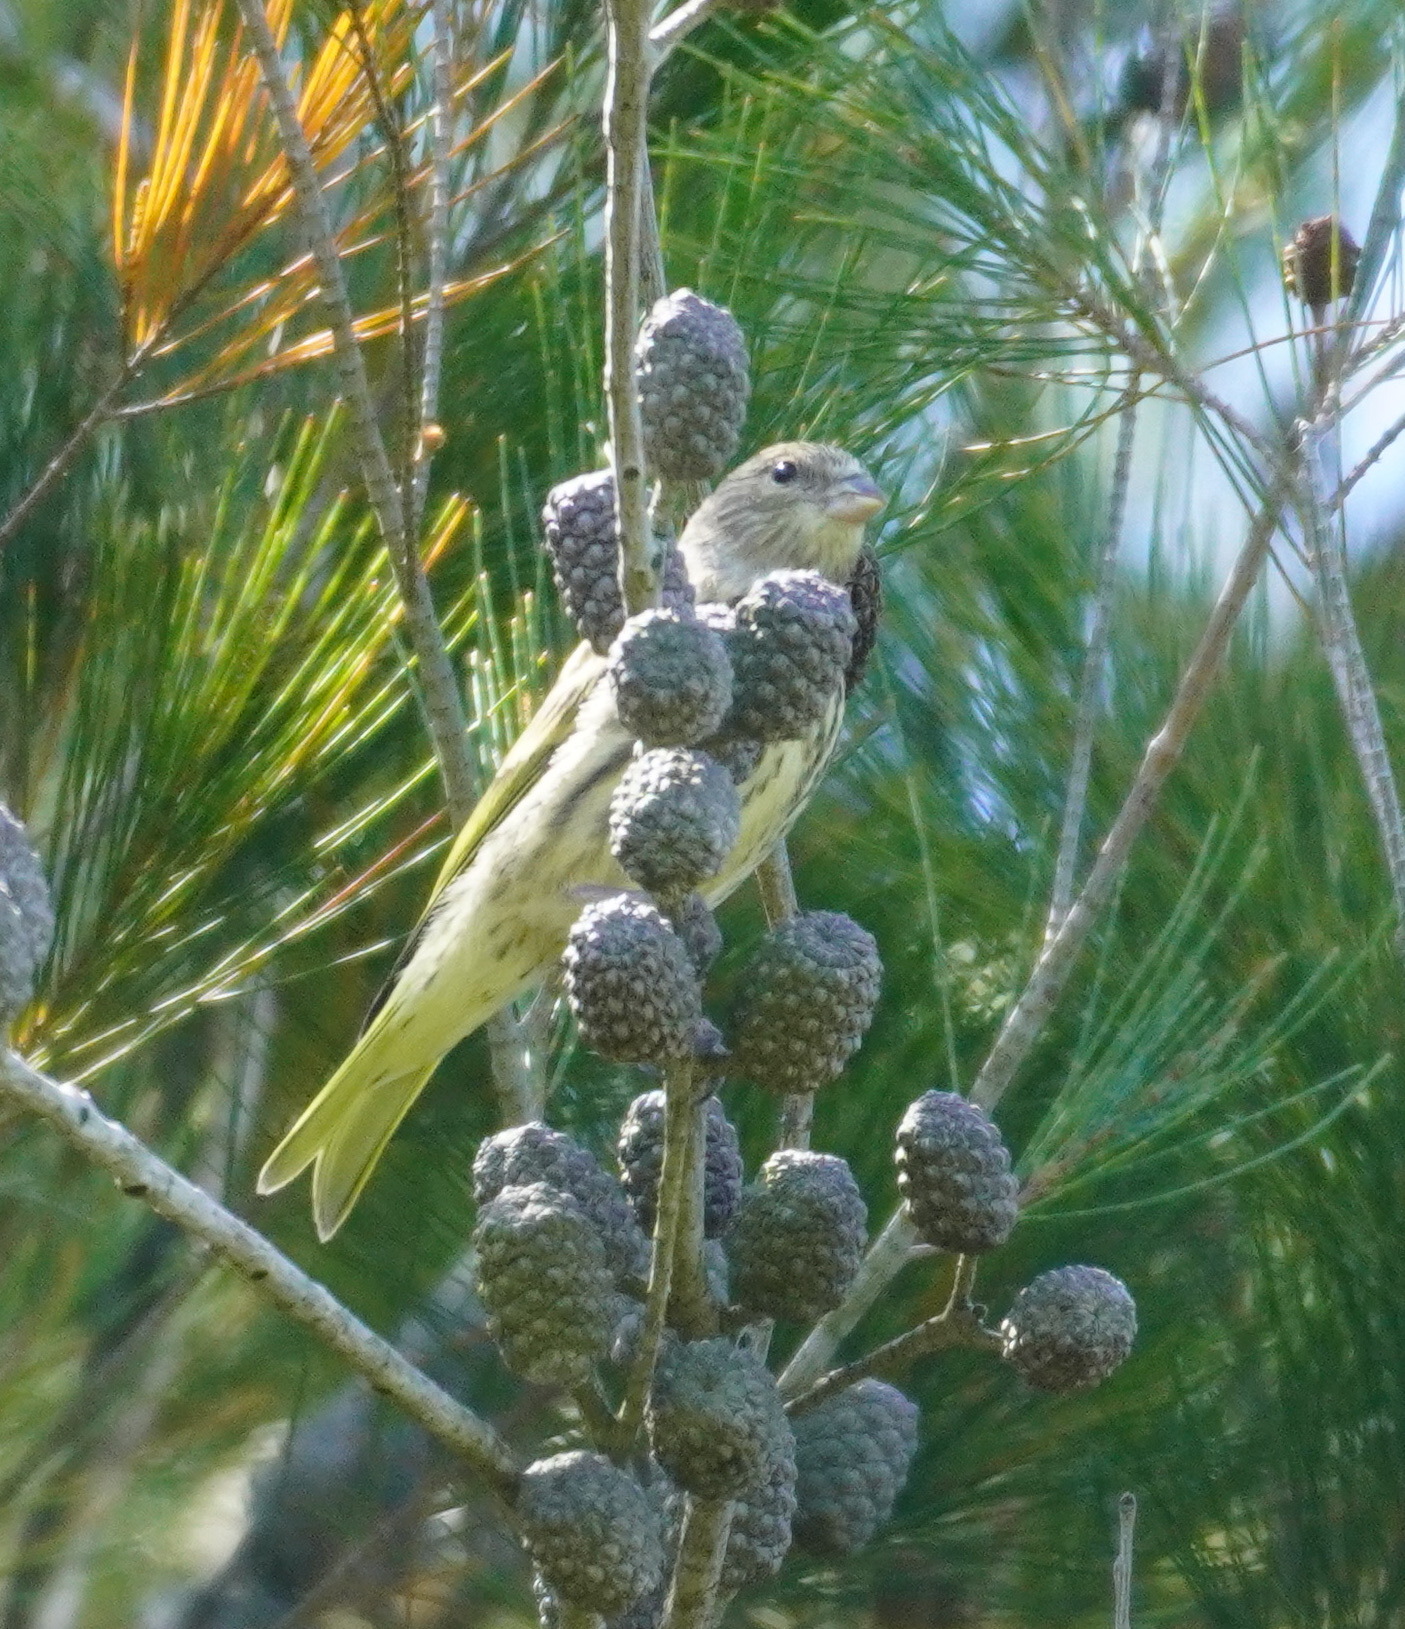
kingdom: Animalia
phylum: Chordata
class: Aves
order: Passeriformes
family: Fringillidae
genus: Serinus
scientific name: Serinus canicollis
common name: Cape canary
